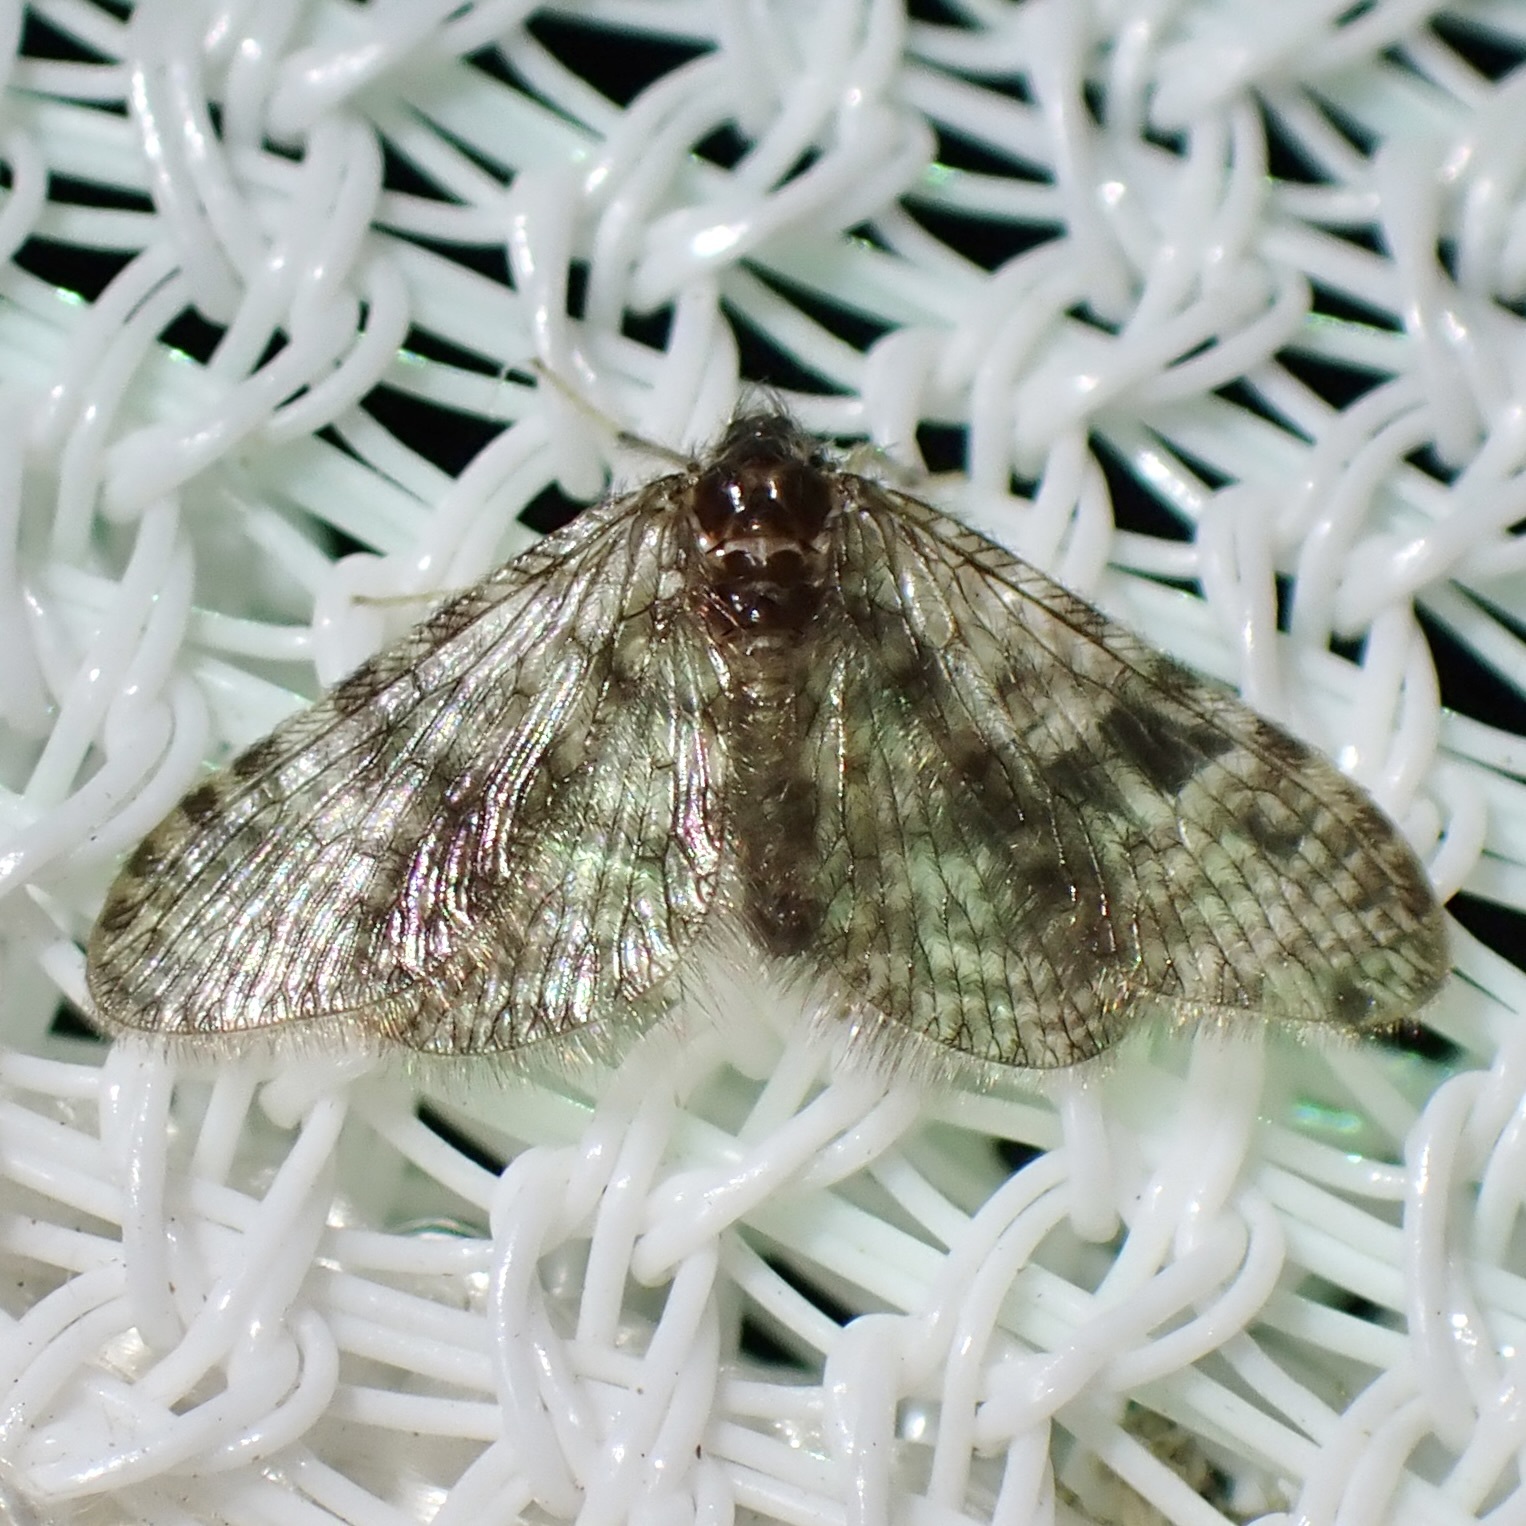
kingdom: Animalia
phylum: Arthropoda
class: Insecta
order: Neuroptera
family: Dilaridae
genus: Nallachius
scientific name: Nallachius pulchellus
